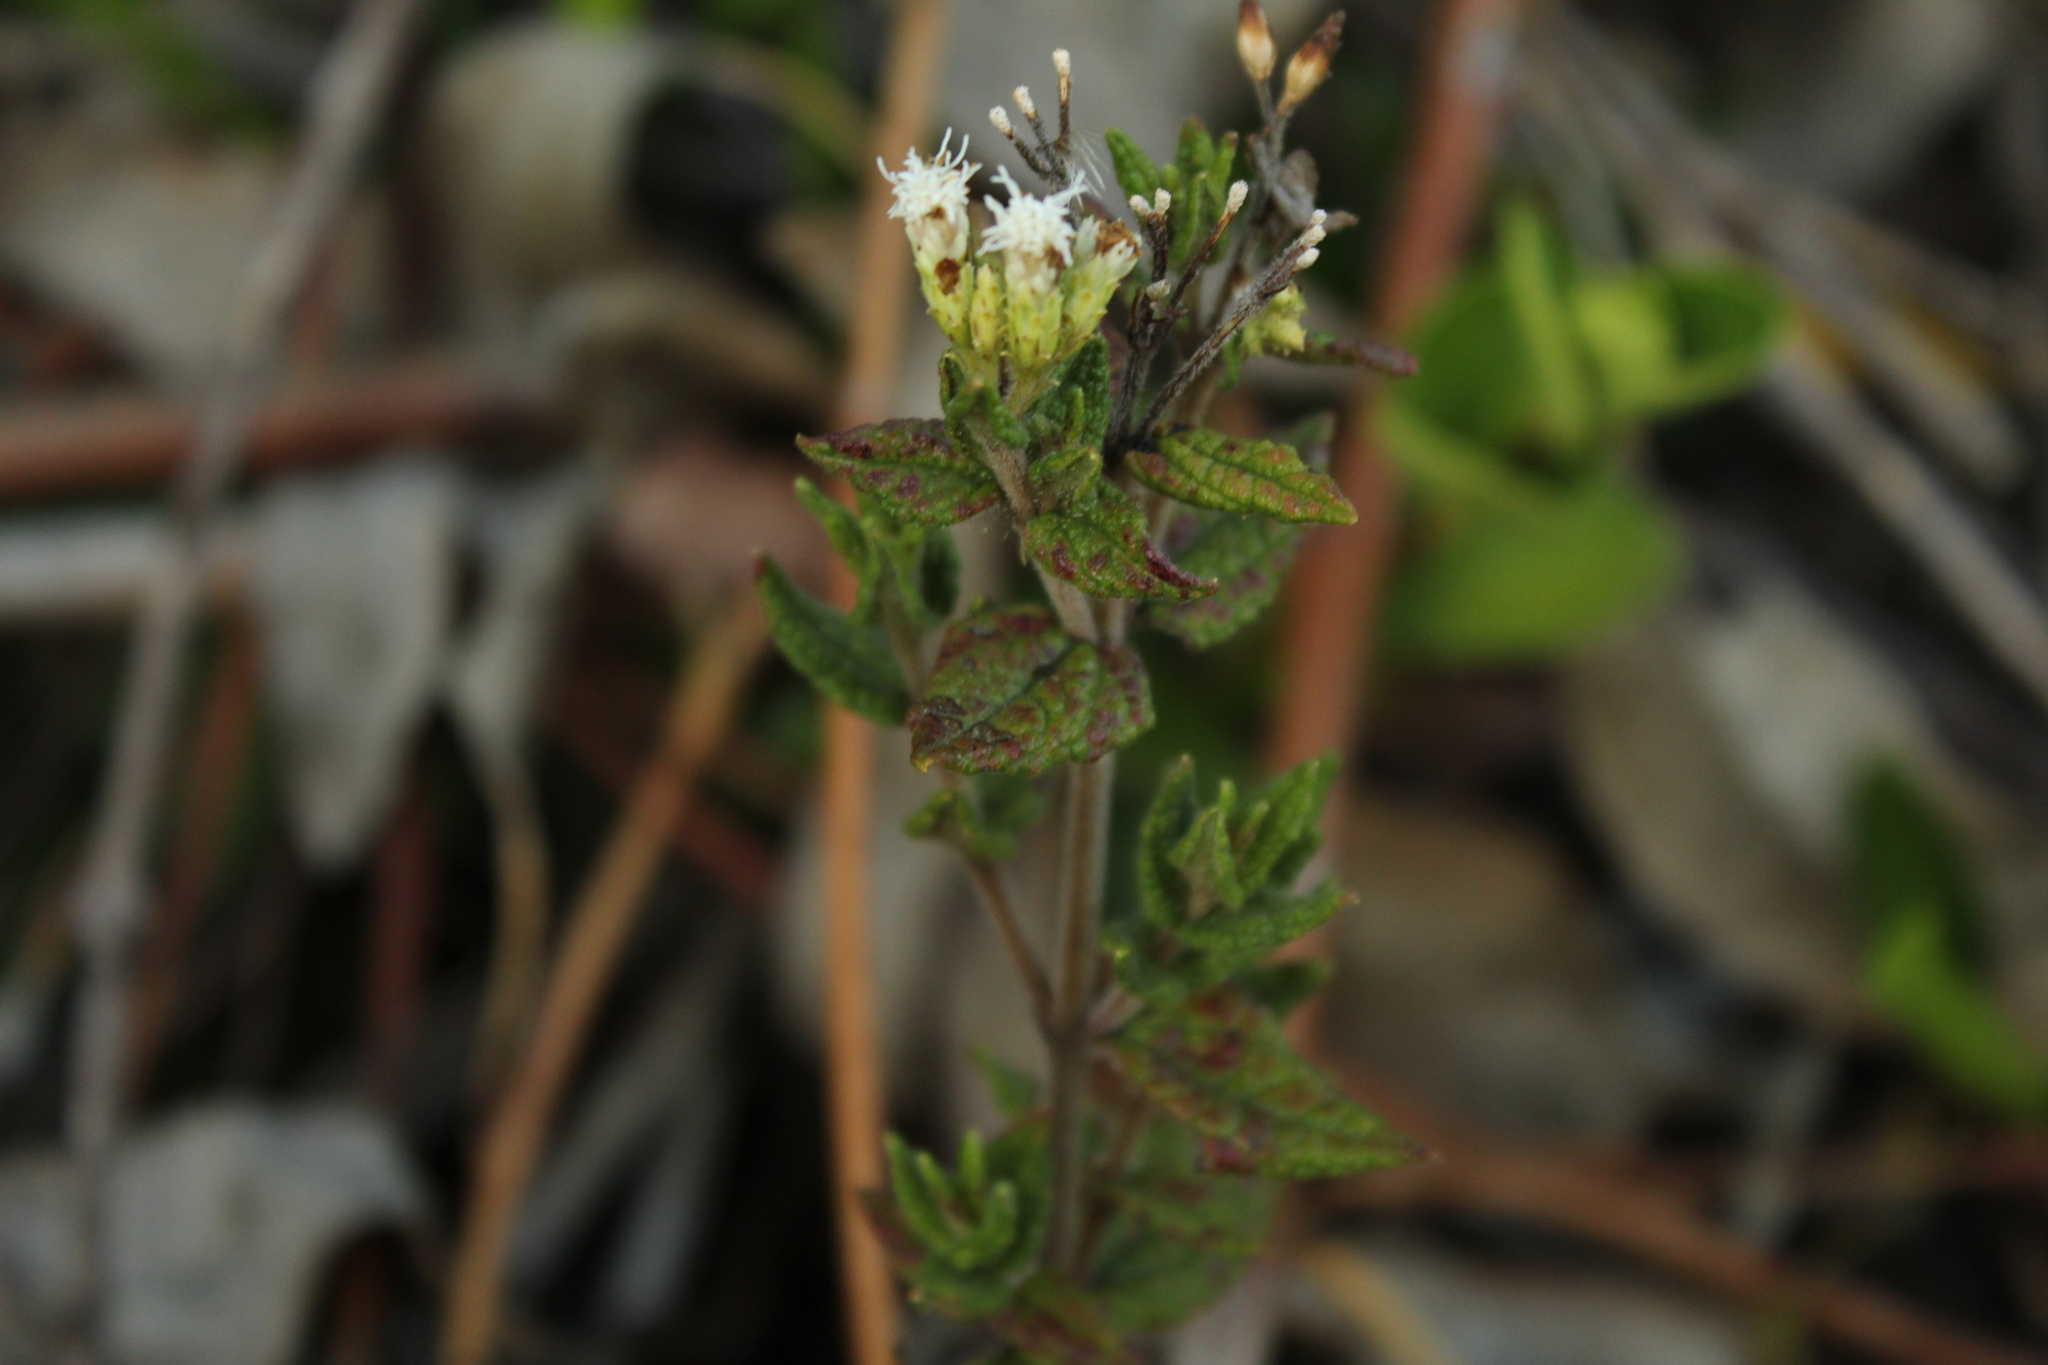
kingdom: Plantae
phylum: Tracheophyta
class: Magnoliopsida
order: Asterales
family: Asteraceae
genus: Chromolaena
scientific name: Chromolaena bullata
